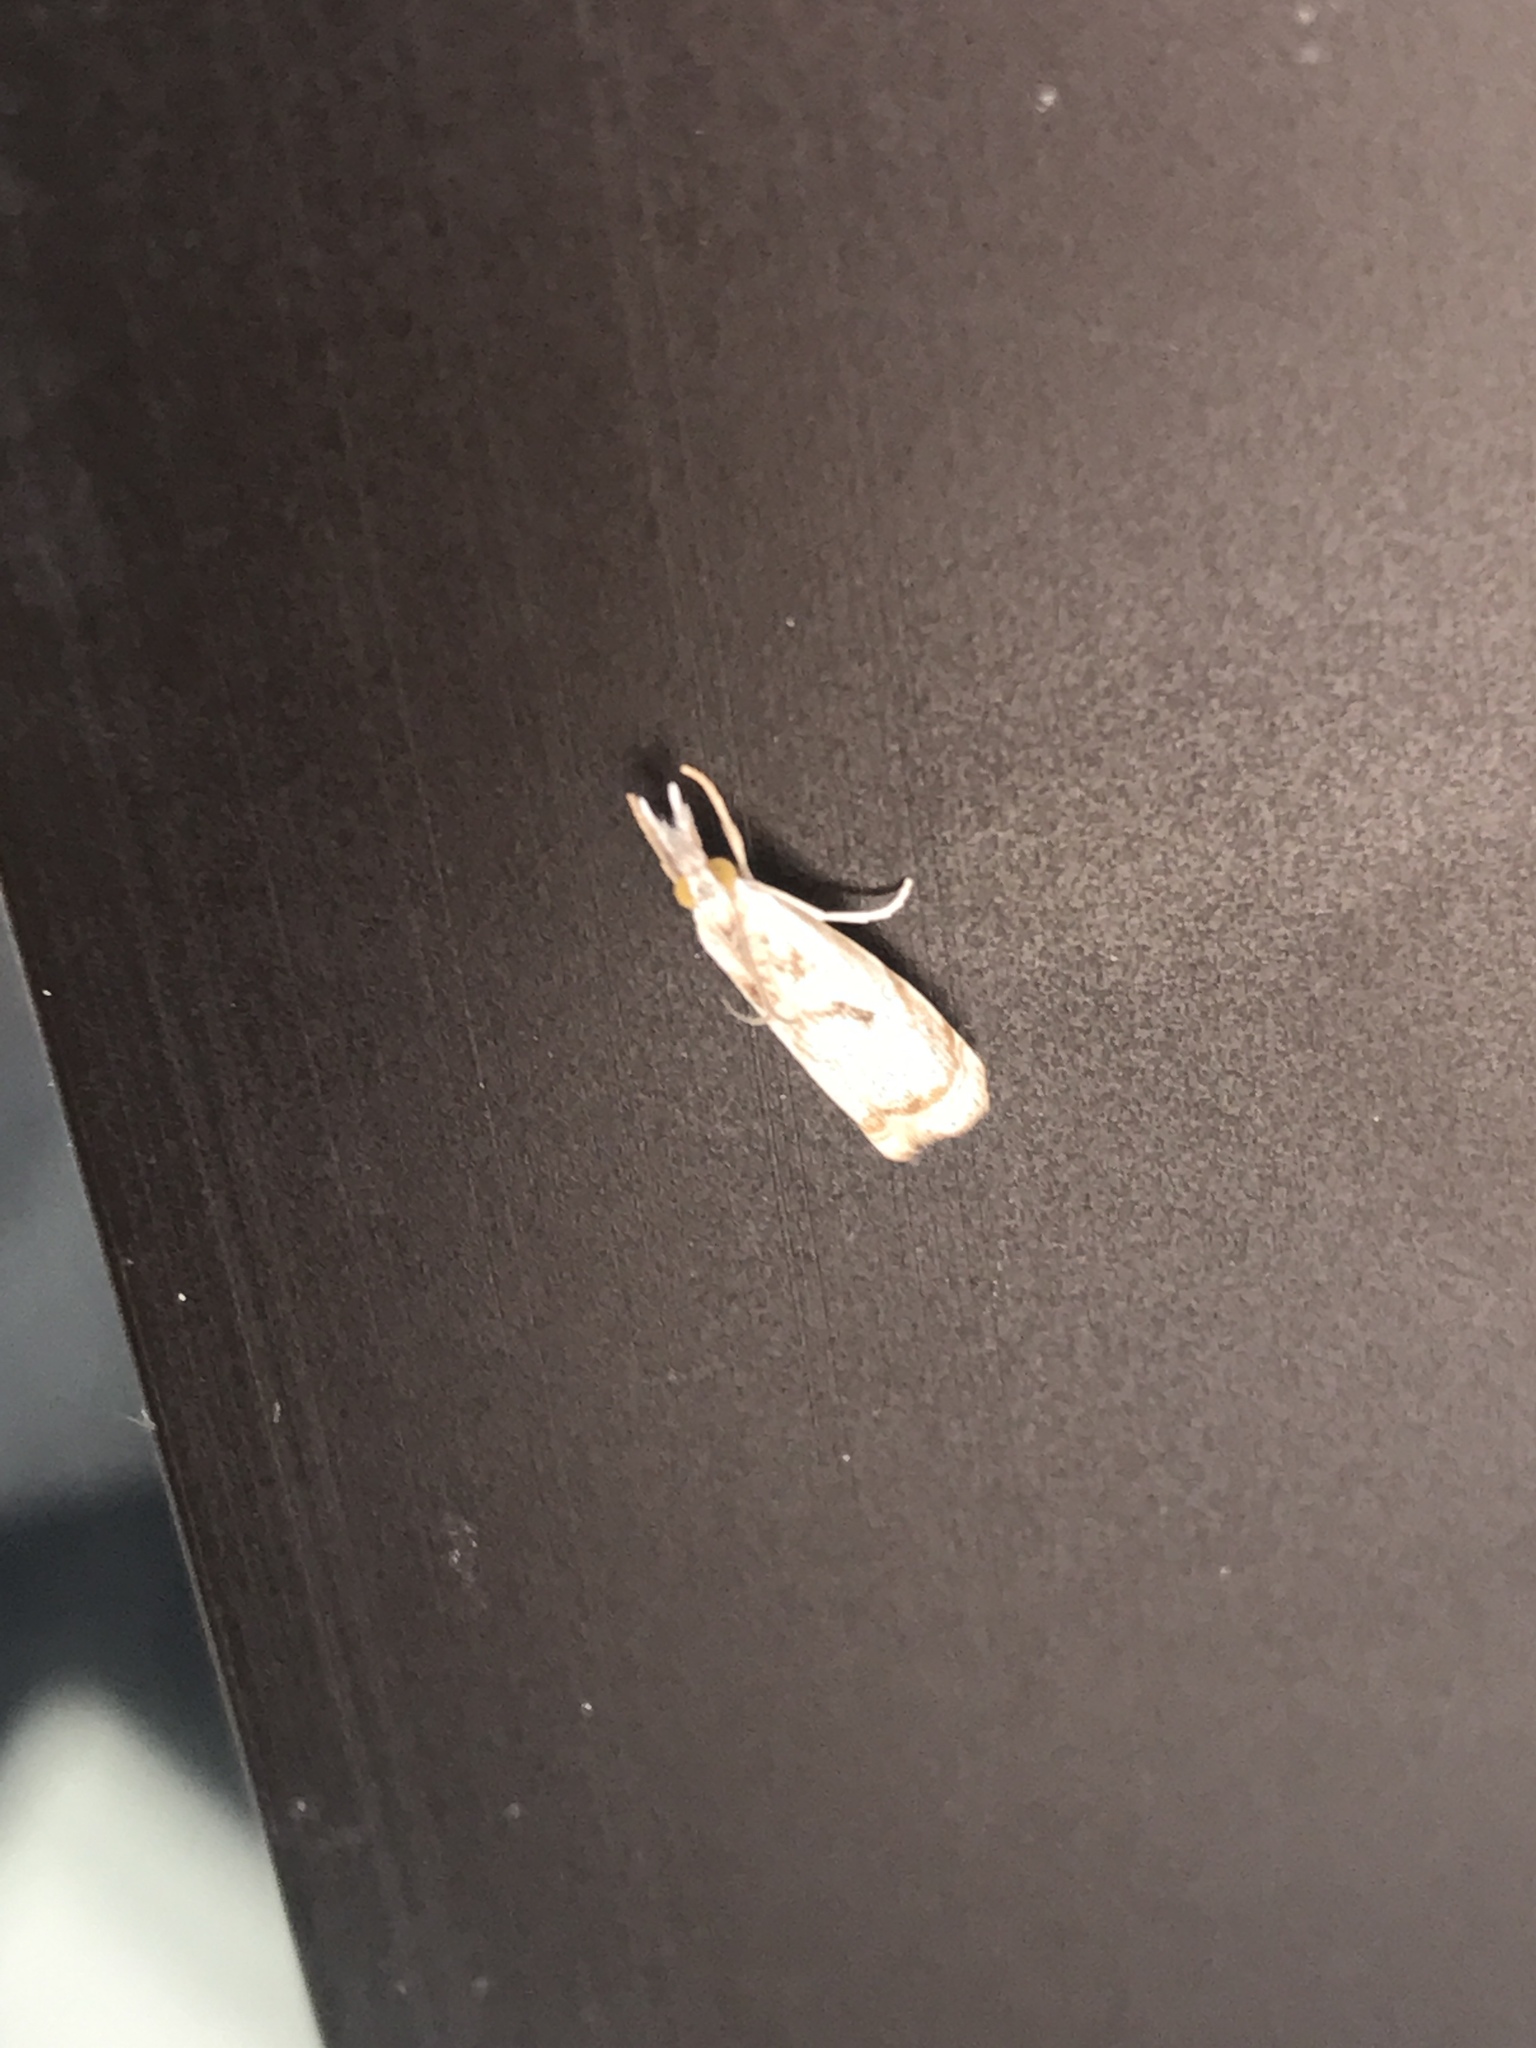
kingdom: Animalia
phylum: Arthropoda
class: Insecta
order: Lepidoptera
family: Crambidae
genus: Microcrambus
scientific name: Microcrambus elegans
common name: Elegant grass-veneer
